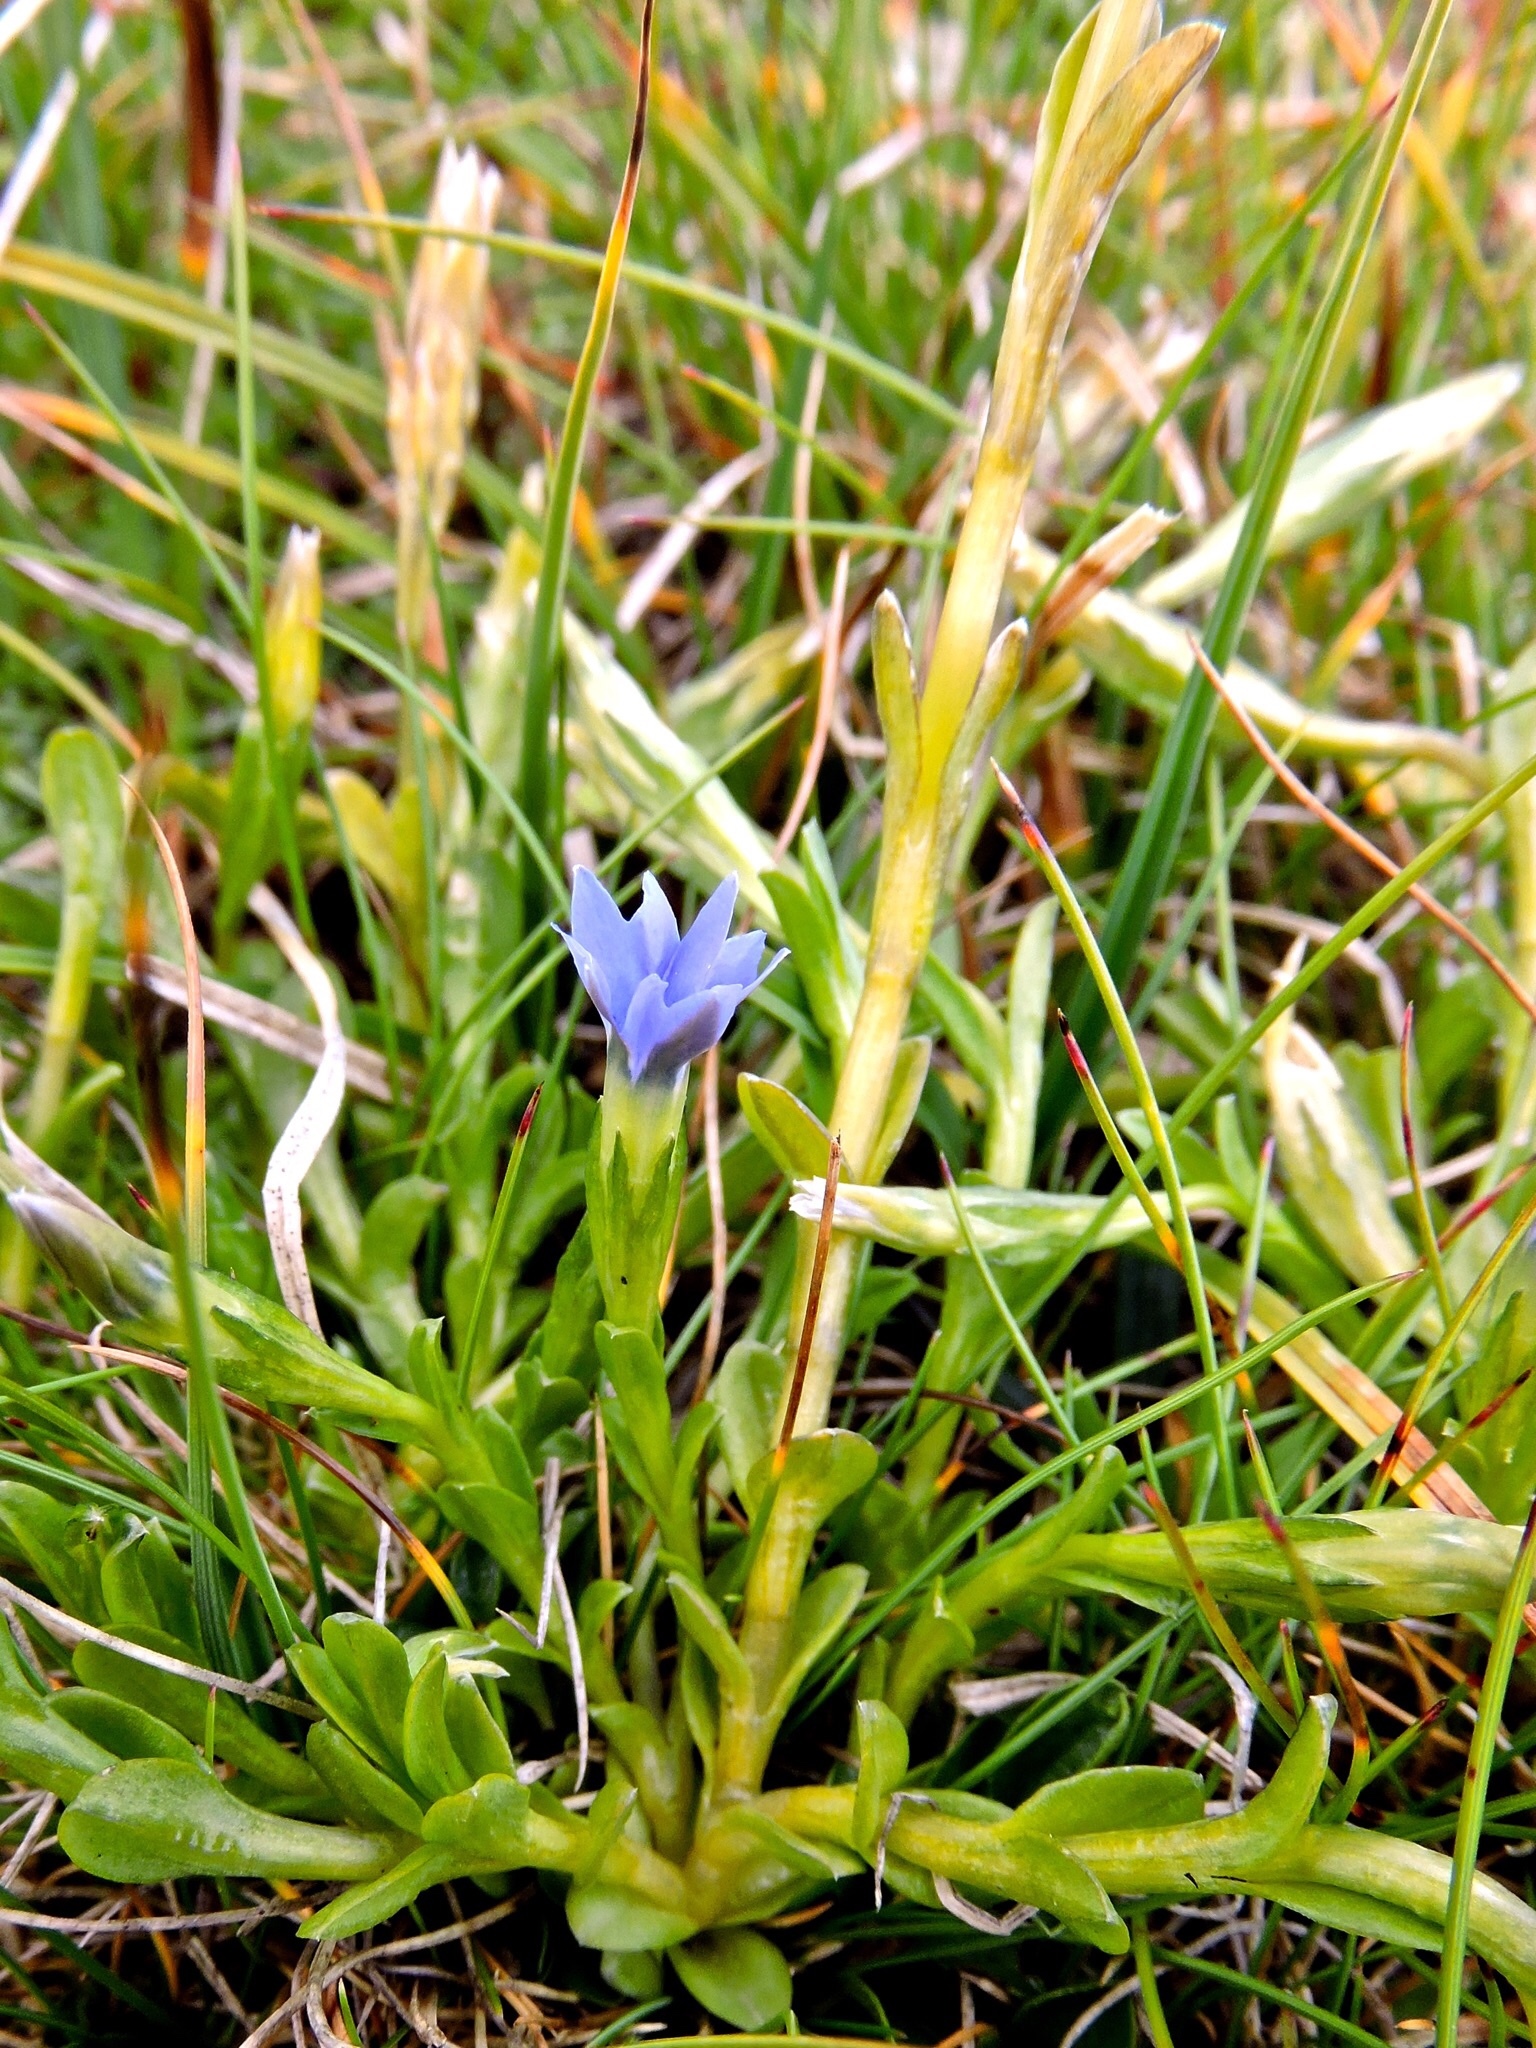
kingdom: Plantae
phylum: Tracheophyta
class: Magnoliopsida
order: Gentianales
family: Gentianaceae
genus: Gentiana
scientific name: Gentiana prostrata
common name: Moss gentian
